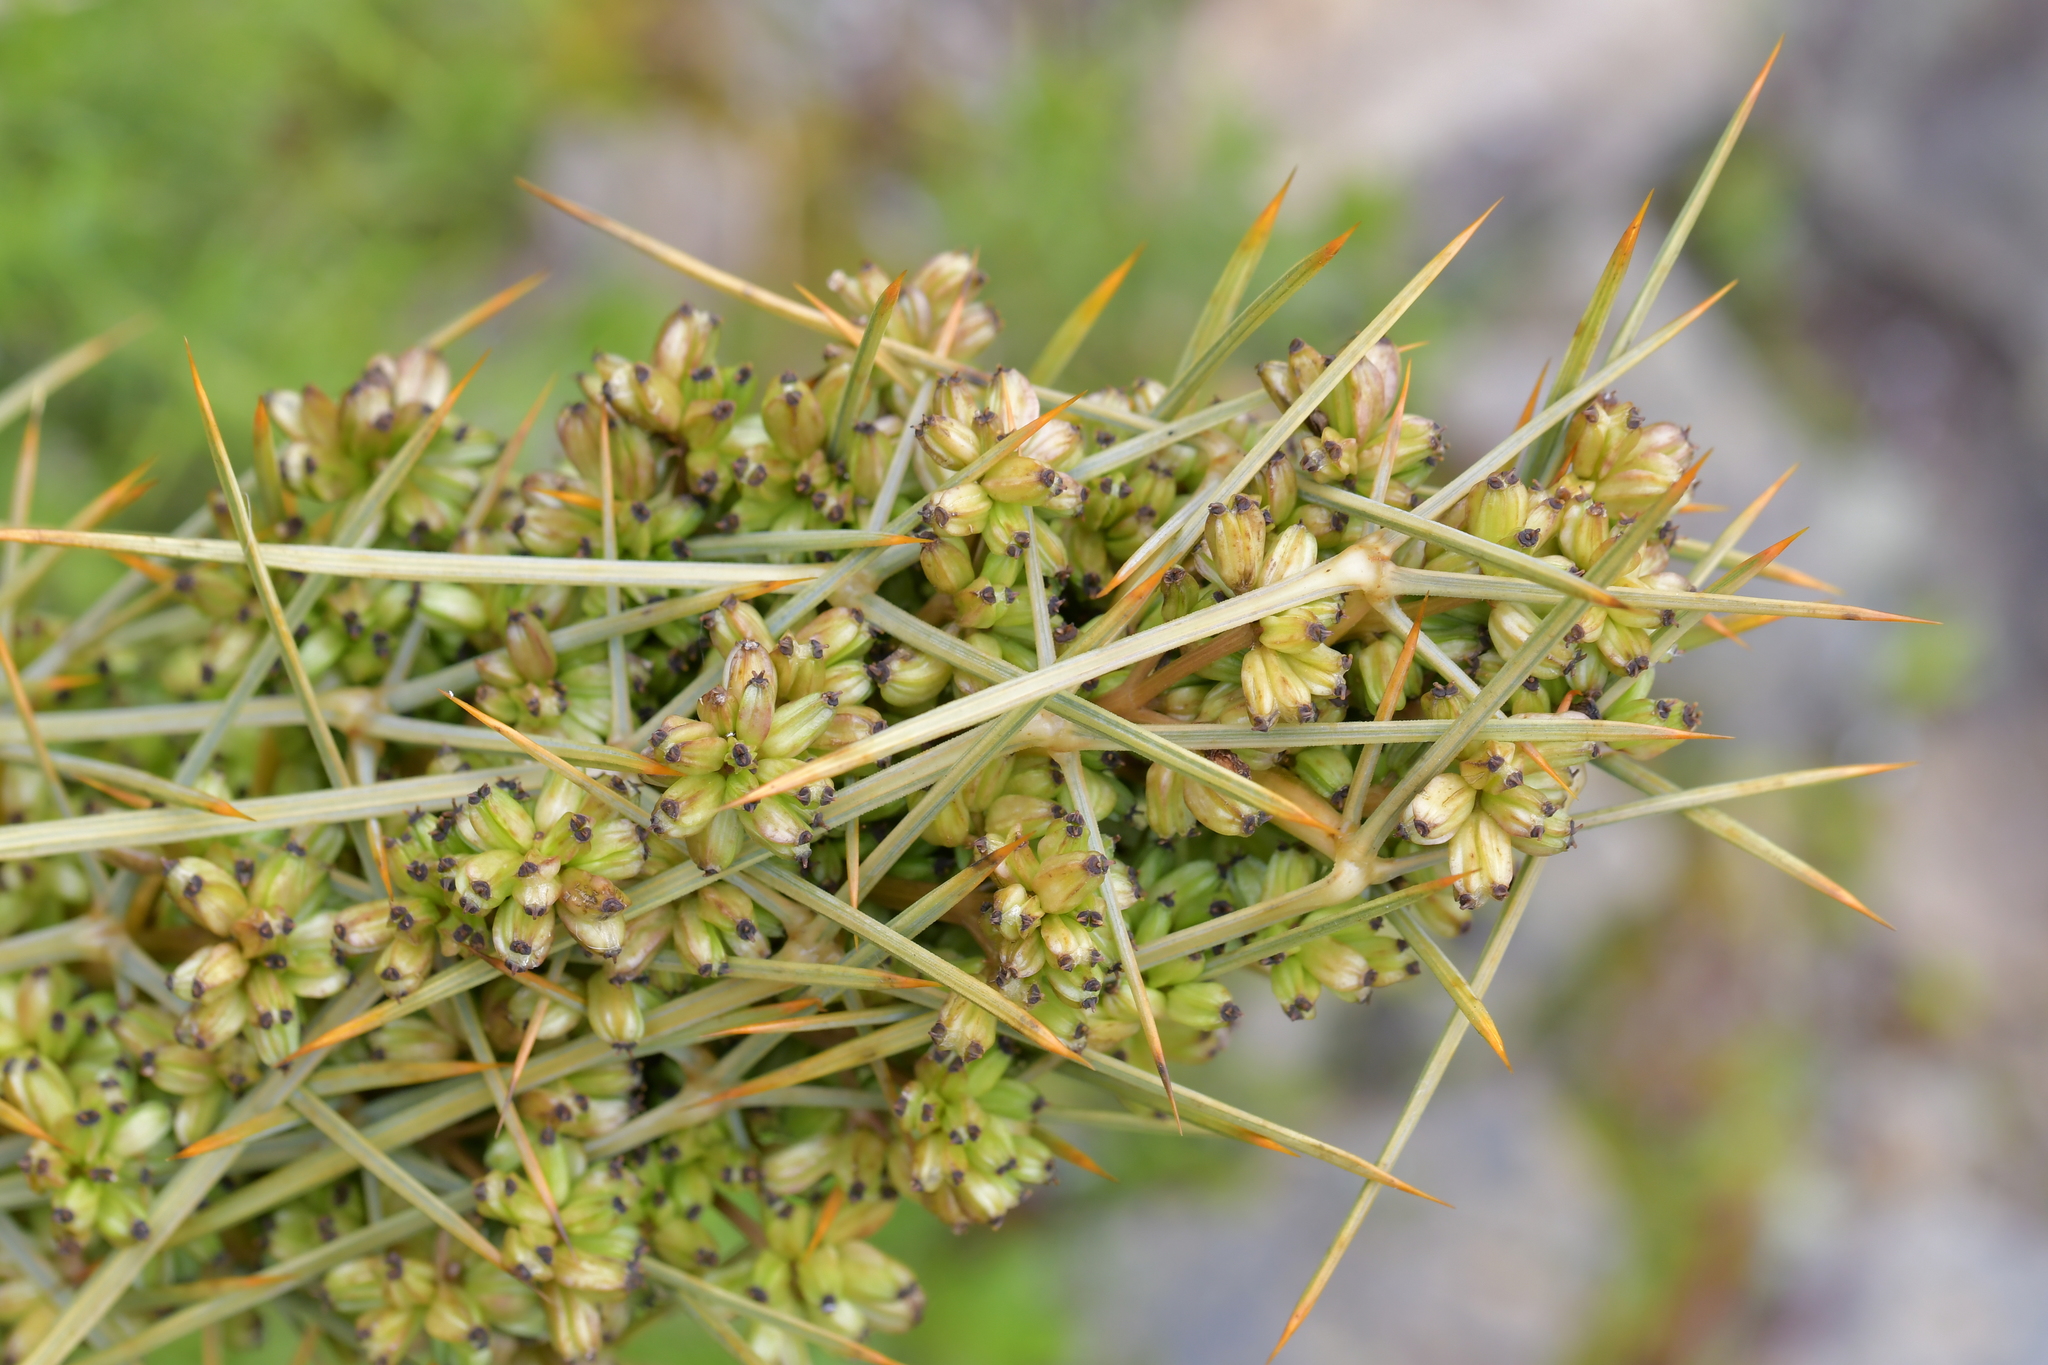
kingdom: Plantae
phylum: Tracheophyta
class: Magnoliopsida
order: Apiales
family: Apiaceae
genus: Aciphylla
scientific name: Aciphylla squarrosa
